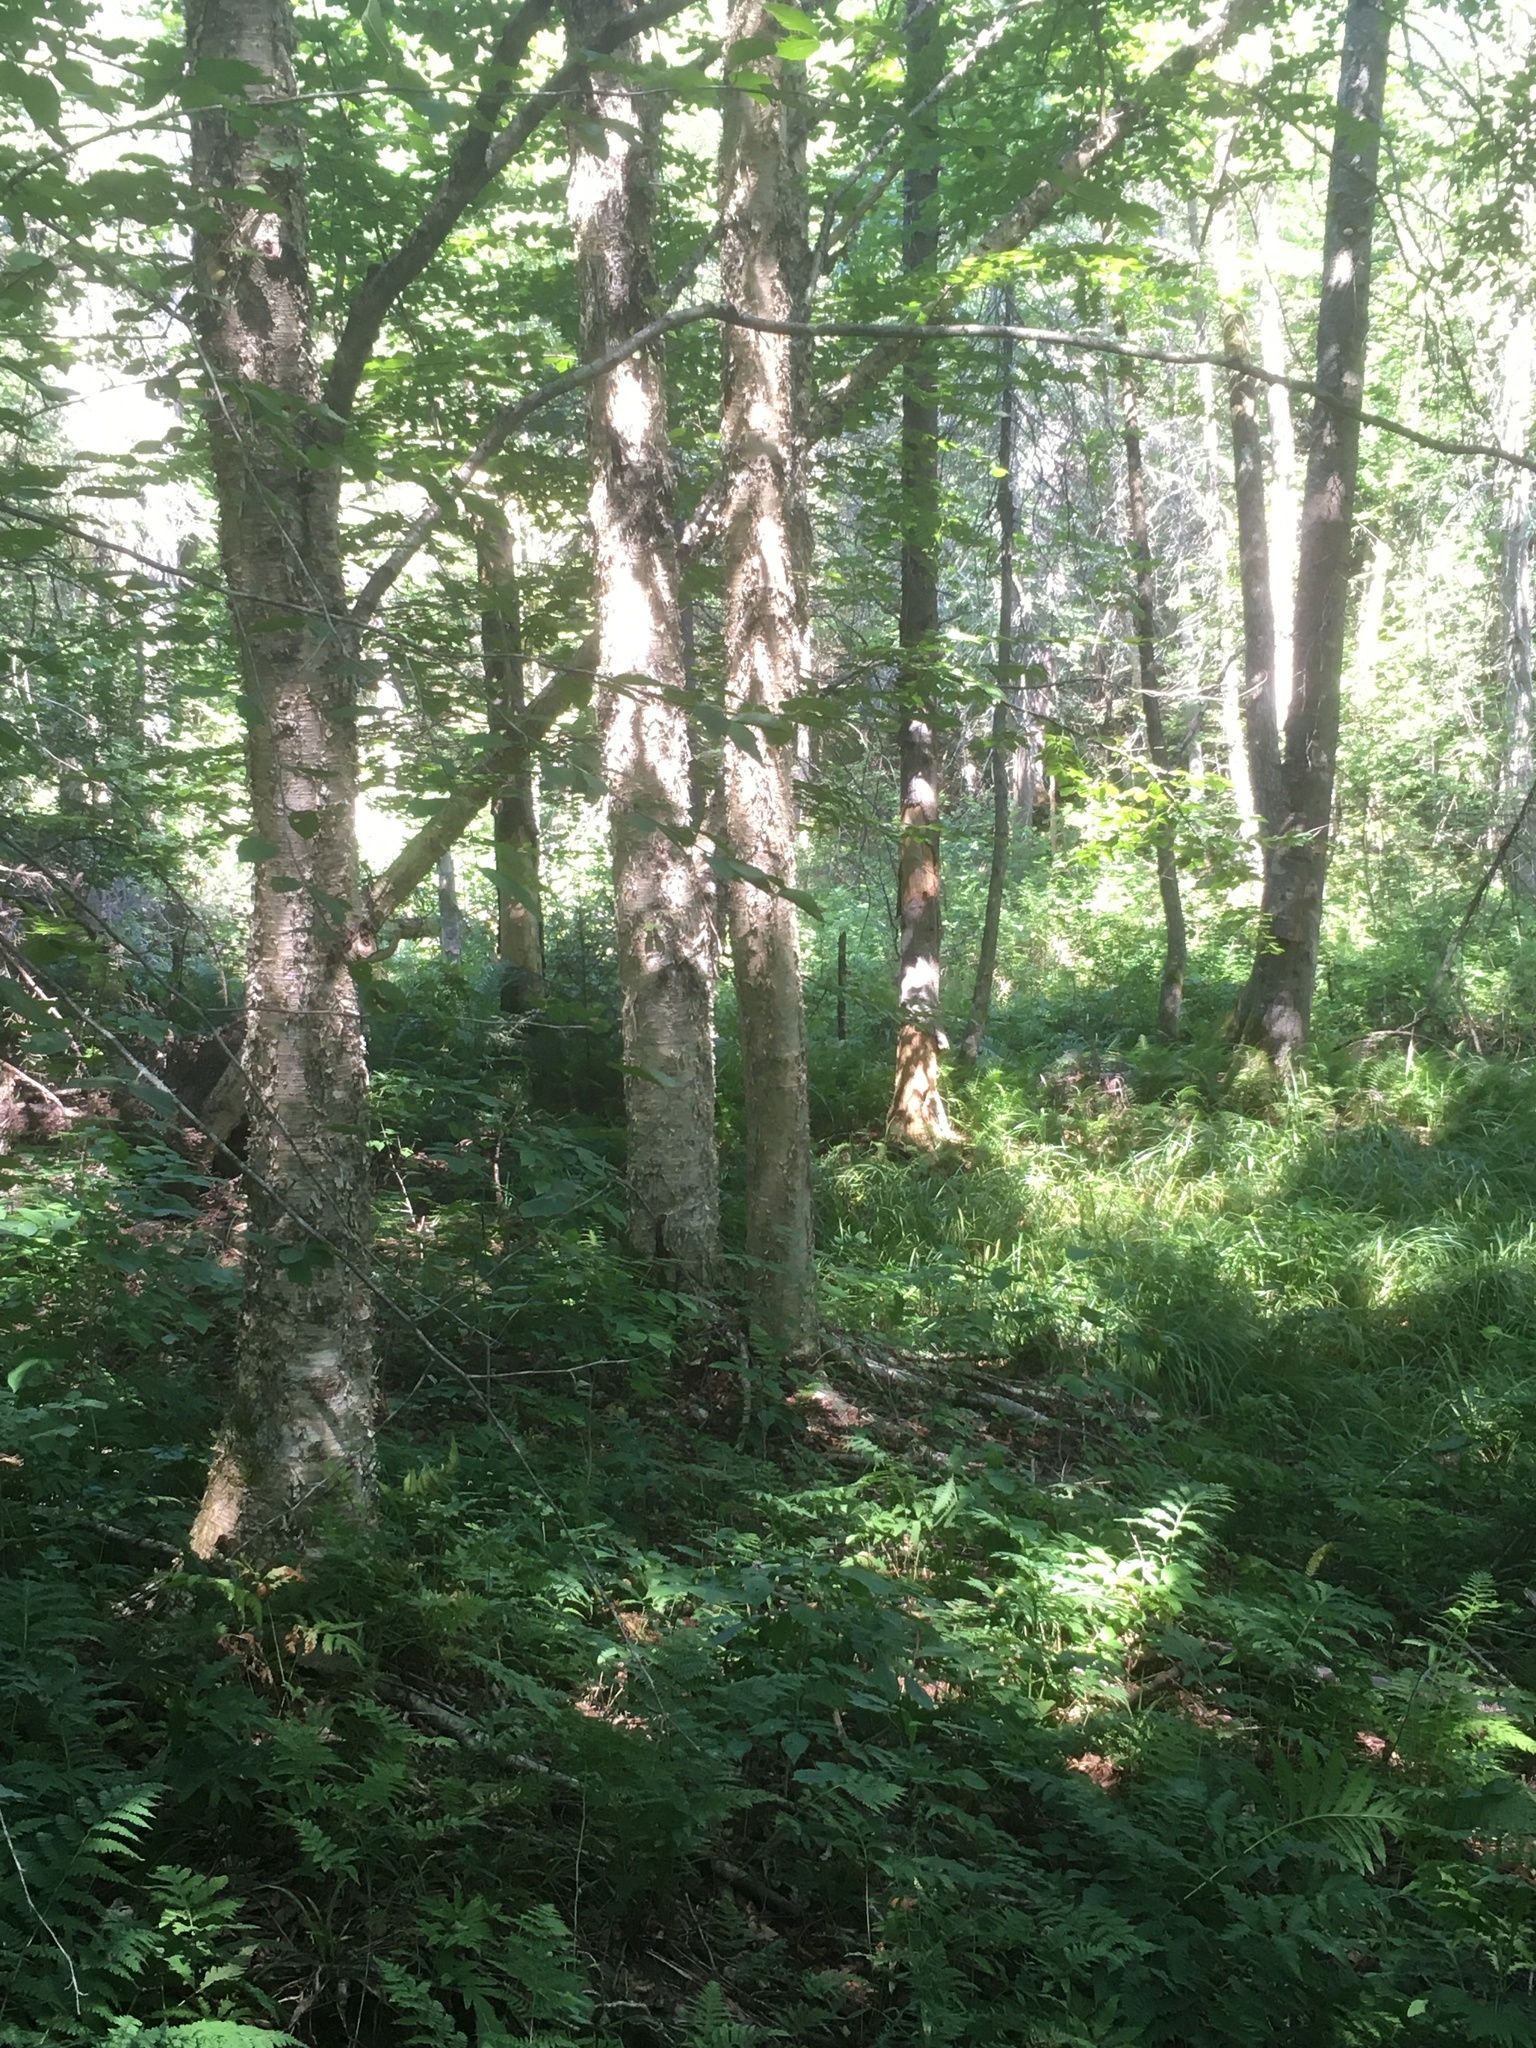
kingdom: Plantae
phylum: Tracheophyta
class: Magnoliopsida
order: Fagales
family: Betulaceae
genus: Betula
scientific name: Betula alleghaniensis
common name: Yellow birch
